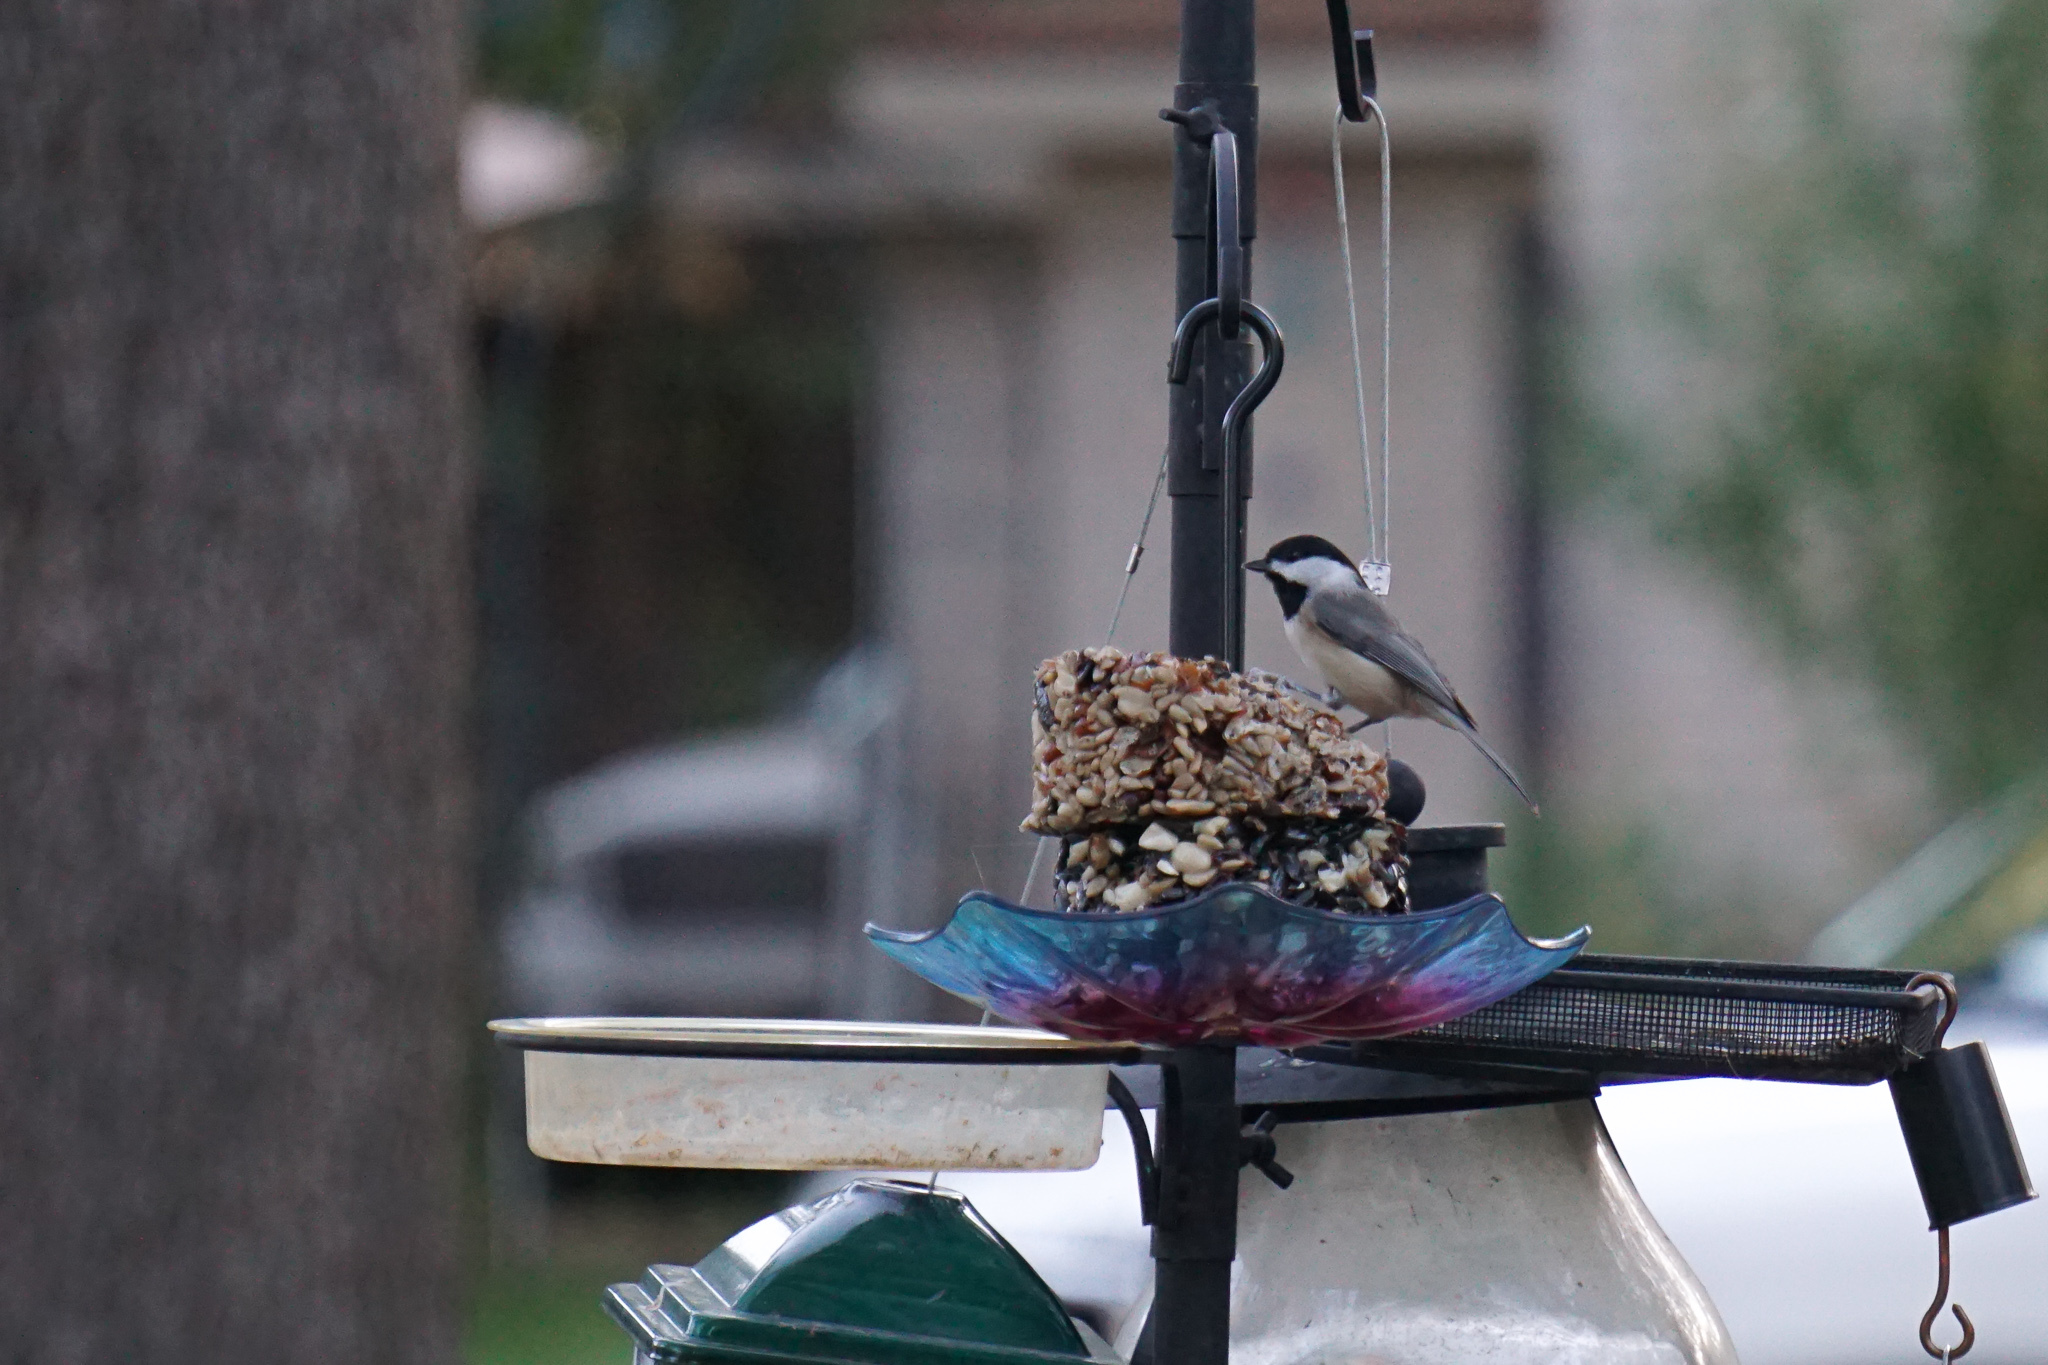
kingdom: Animalia
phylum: Chordata
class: Aves
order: Passeriformes
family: Paridae
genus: Poecile
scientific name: Poecile carolinensis
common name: Carolina chickadee
